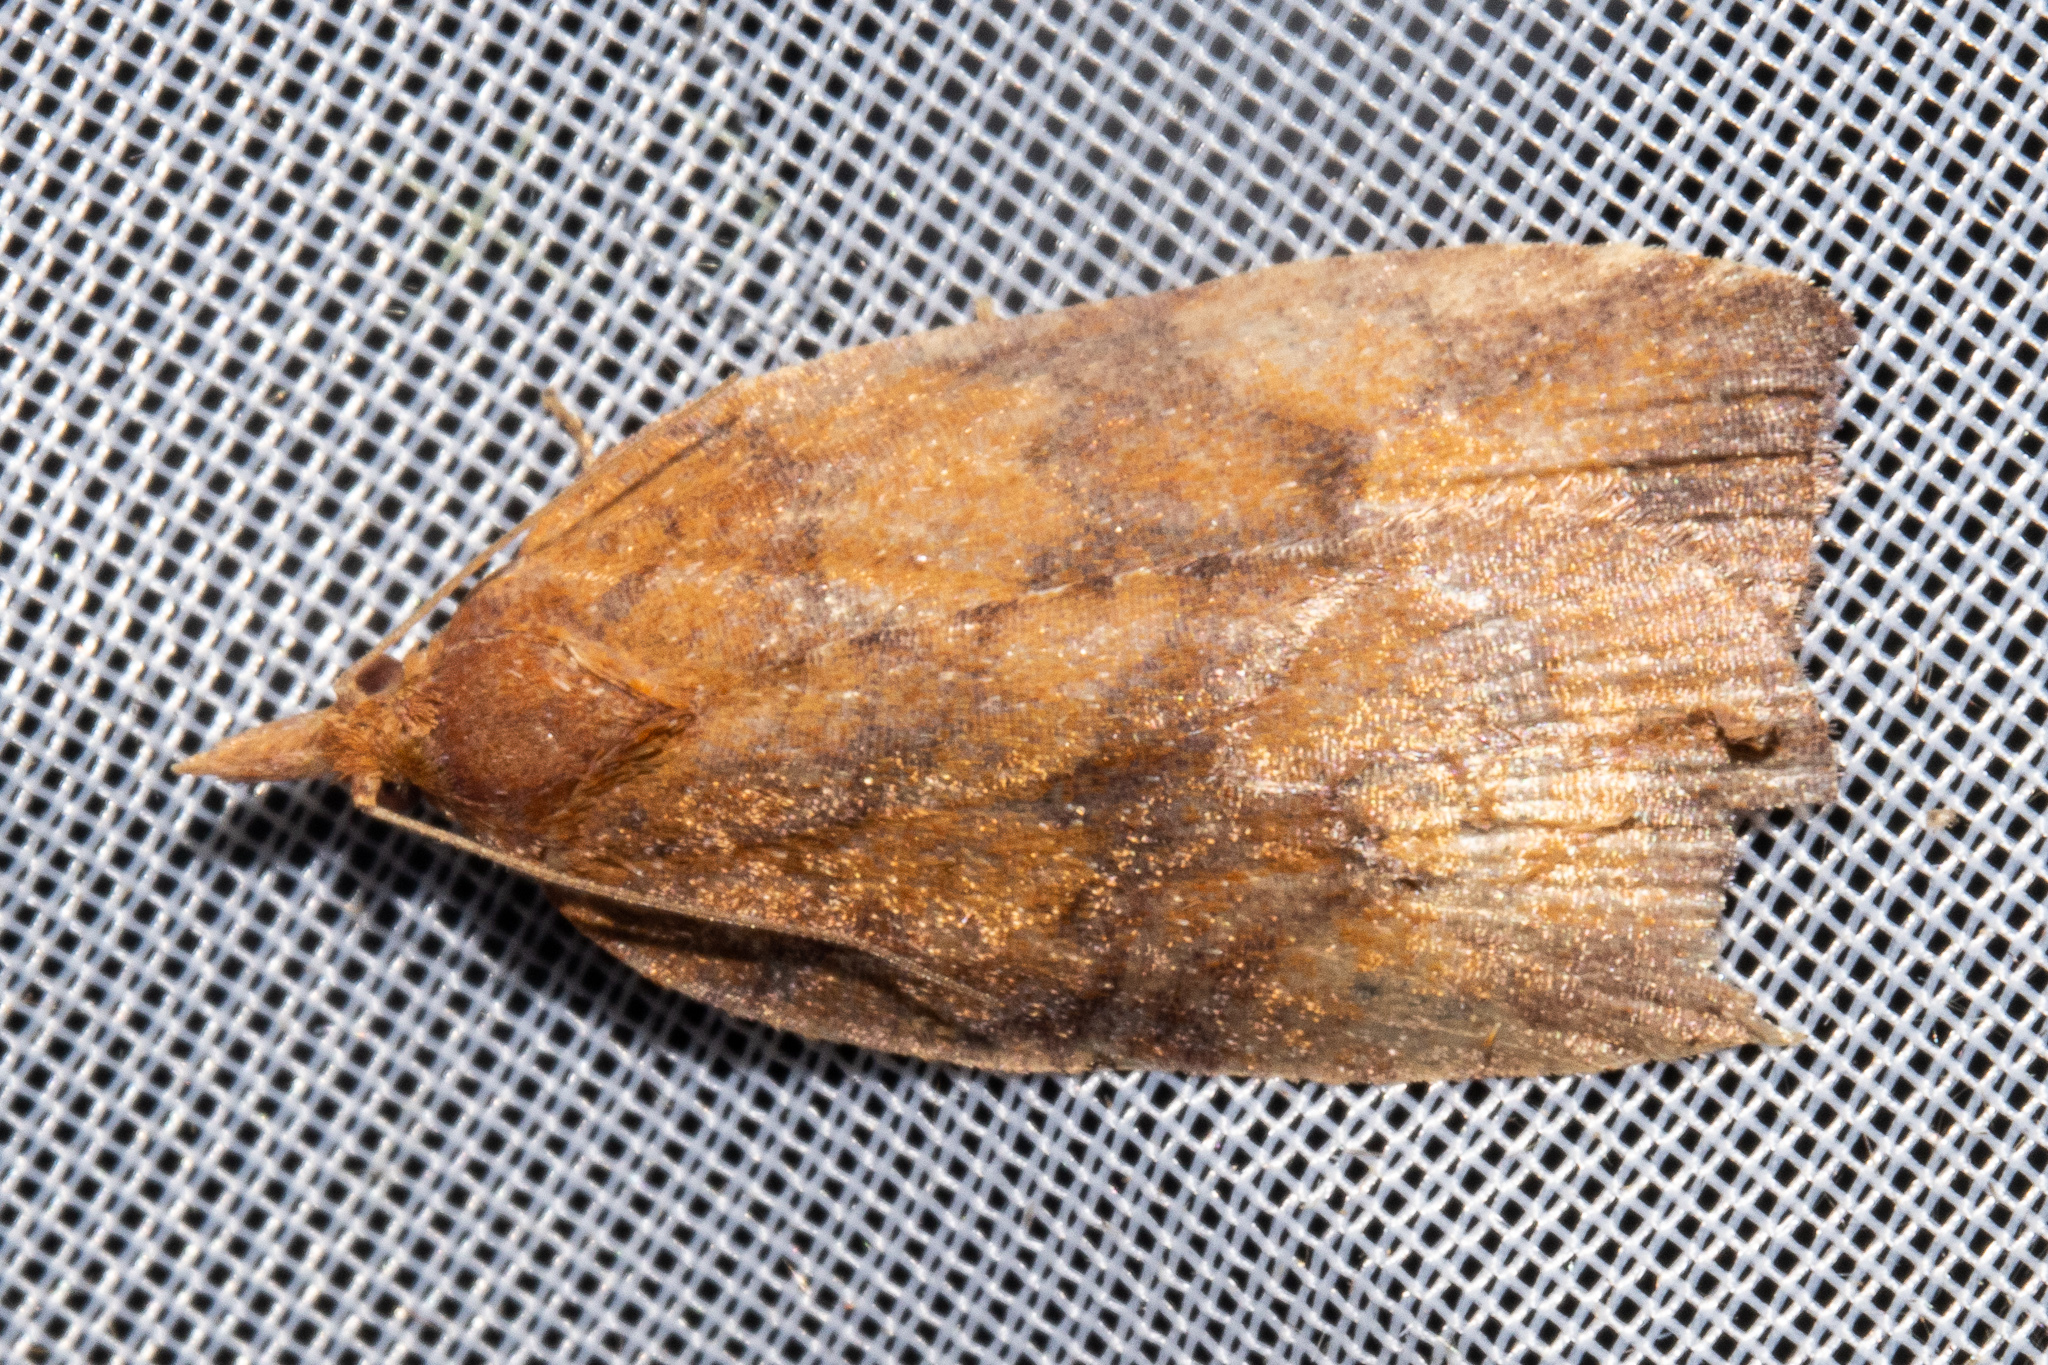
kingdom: Animalia
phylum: Arthropoda
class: Insecta
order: Lepidoptera
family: Tortricidae
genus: Planotortrix
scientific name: Planotortrix excessana
